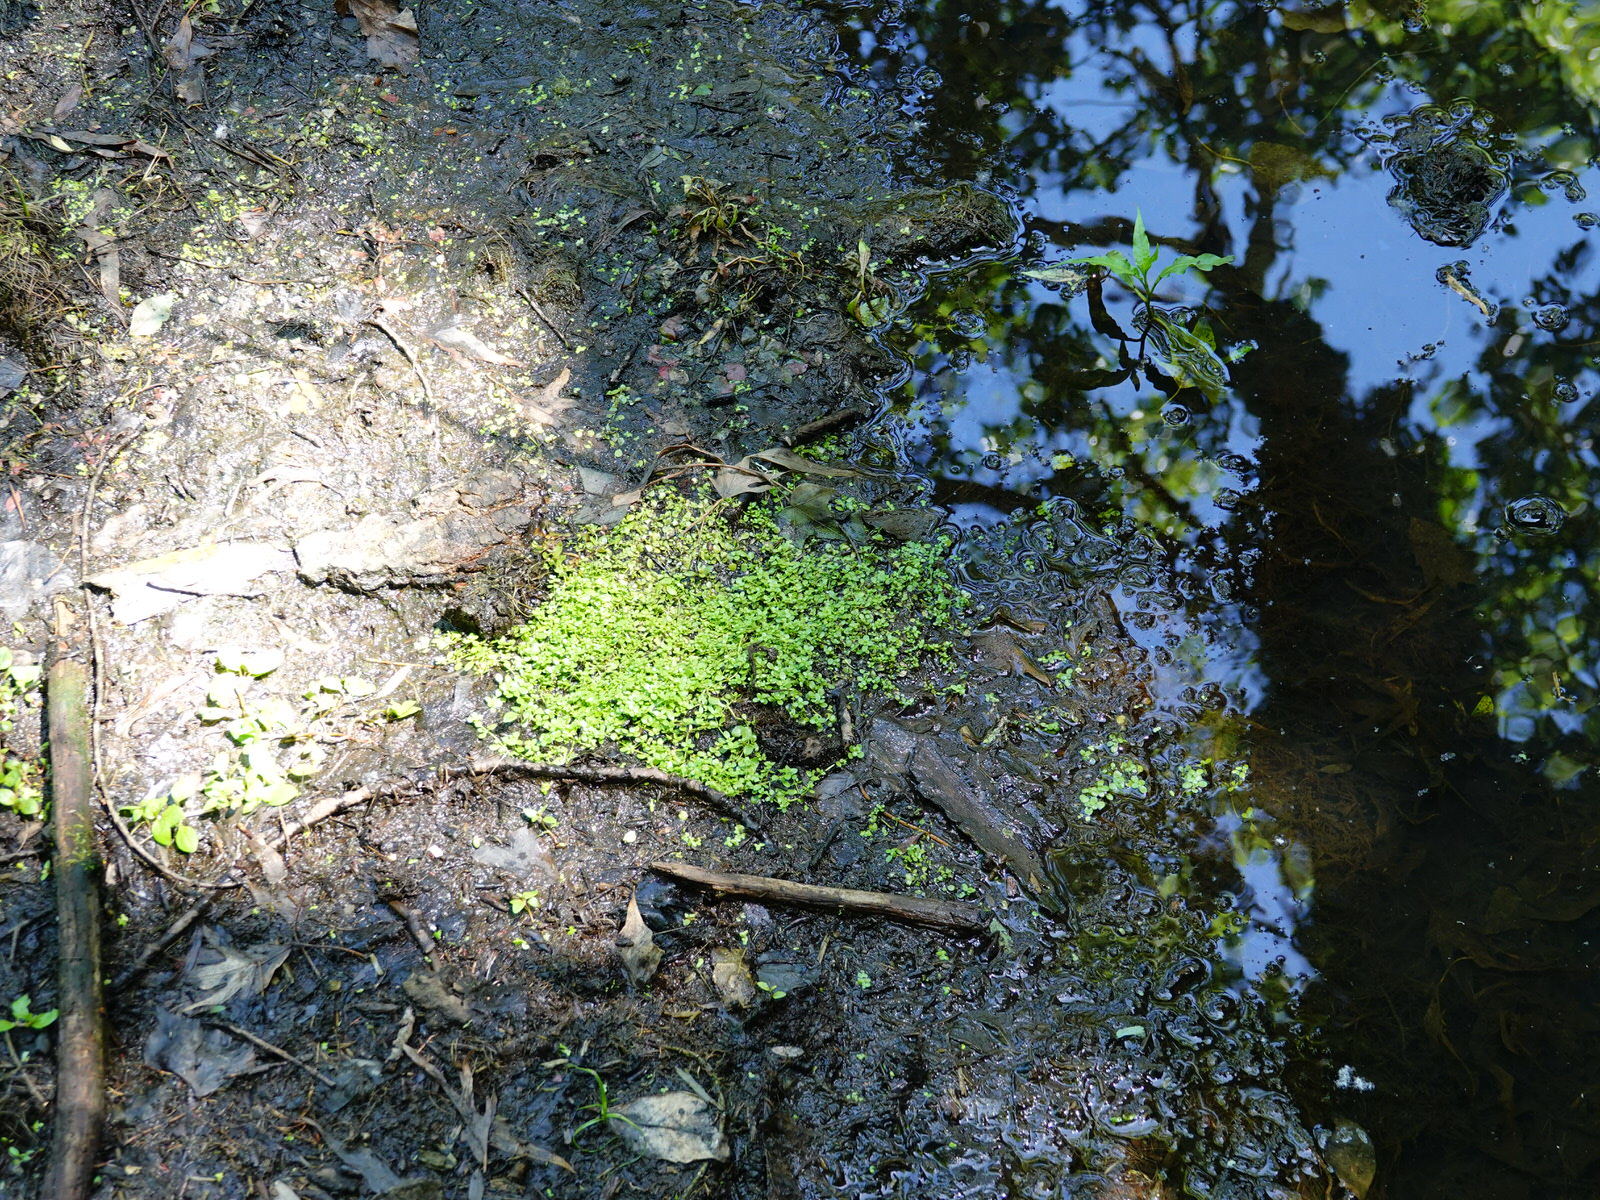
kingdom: Plantae
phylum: Tracheophyta
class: Magnoliopsida
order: Lamiales
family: Plantaginaceae
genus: Callitriche
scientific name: Callitriche stagnalis
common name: Common water-starwort
